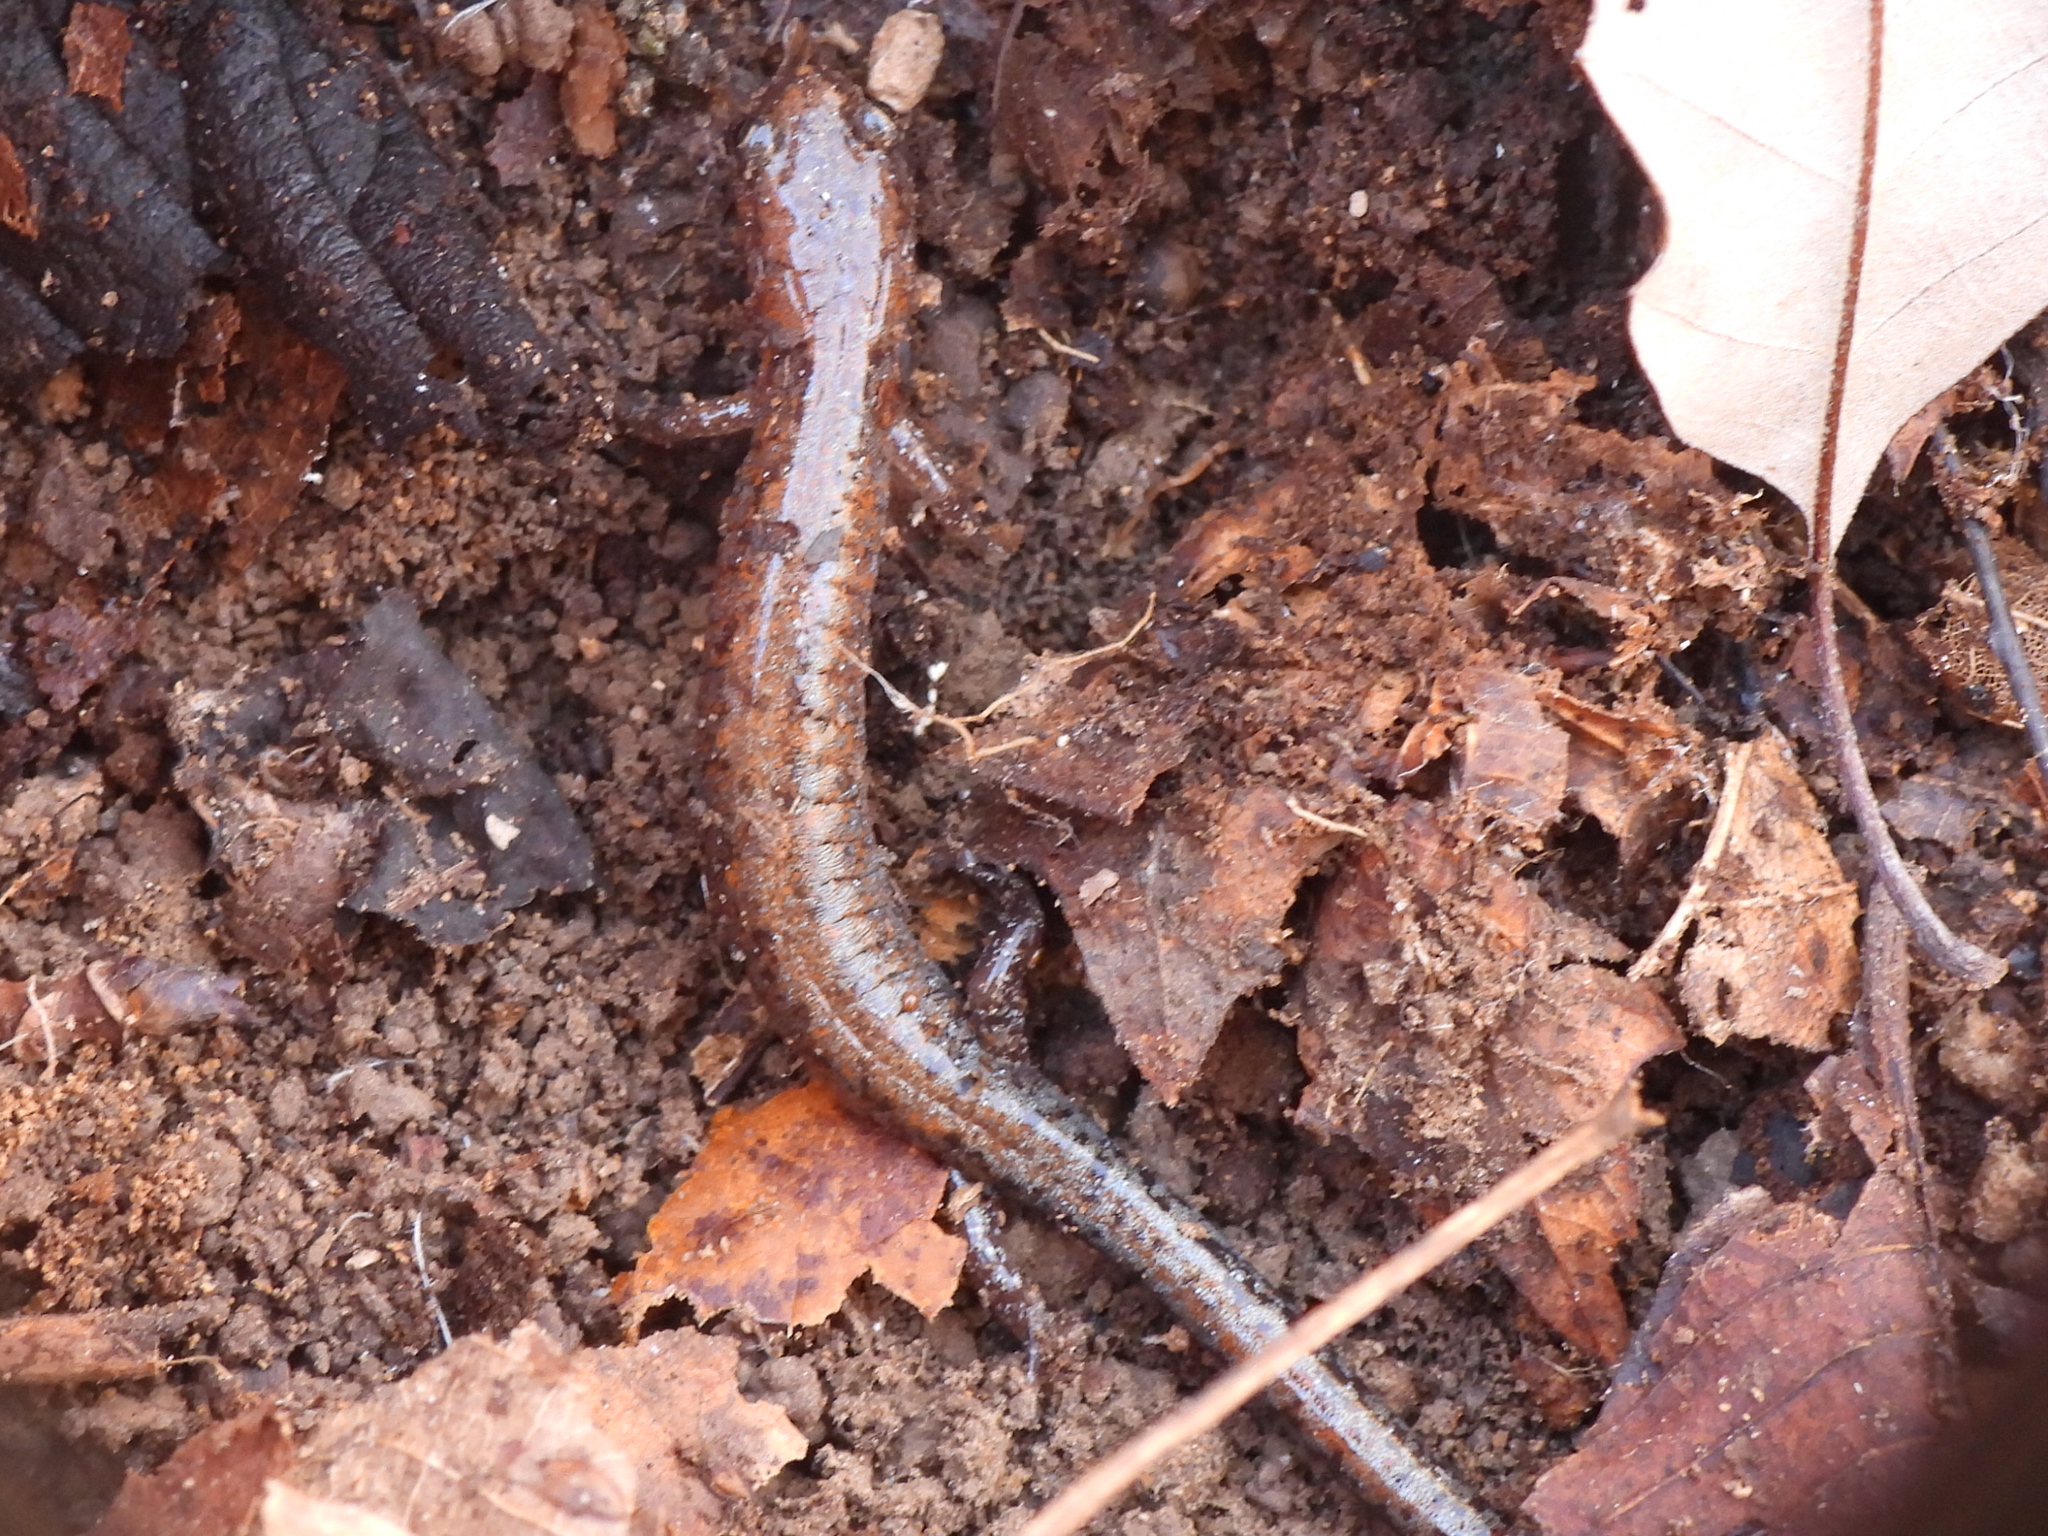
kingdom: Animalia
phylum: Chordata
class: Amphibia
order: Caudata
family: Plethodontidae
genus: Plethodon
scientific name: Plethodon dorsalis
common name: Northern zigzag salamander
